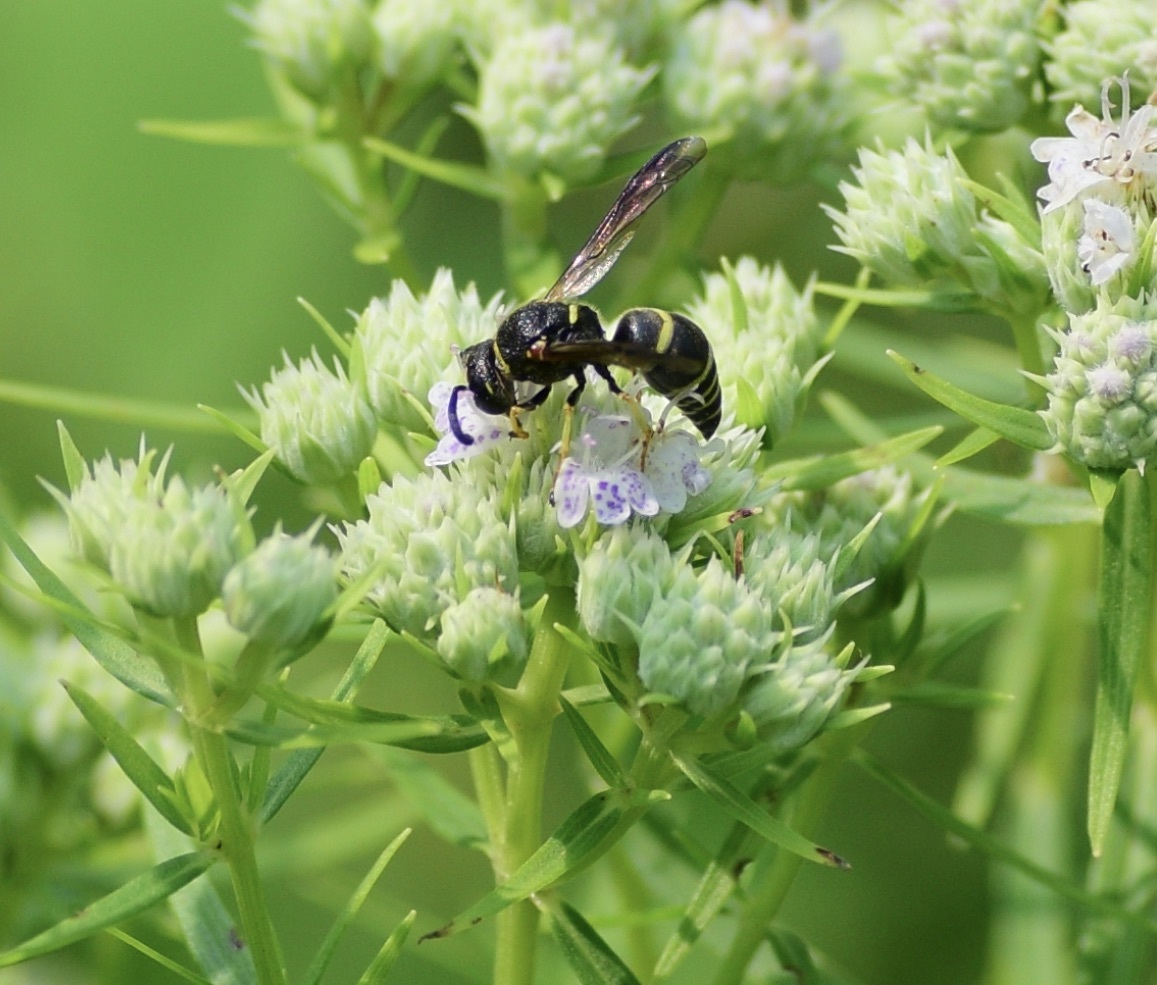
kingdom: Animalia
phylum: Arthropoda
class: Insecta
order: Hymenoptera
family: Eumenidae
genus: Euodynerus
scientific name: Euodynerus foraminatus
